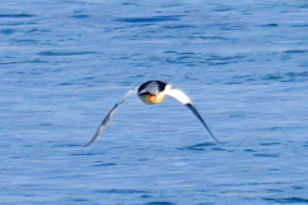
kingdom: Animalia
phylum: Chordata
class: Aves
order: Anseriformes
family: Anatidae
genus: Mergus
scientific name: Mergus merganser
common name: Common merganser
